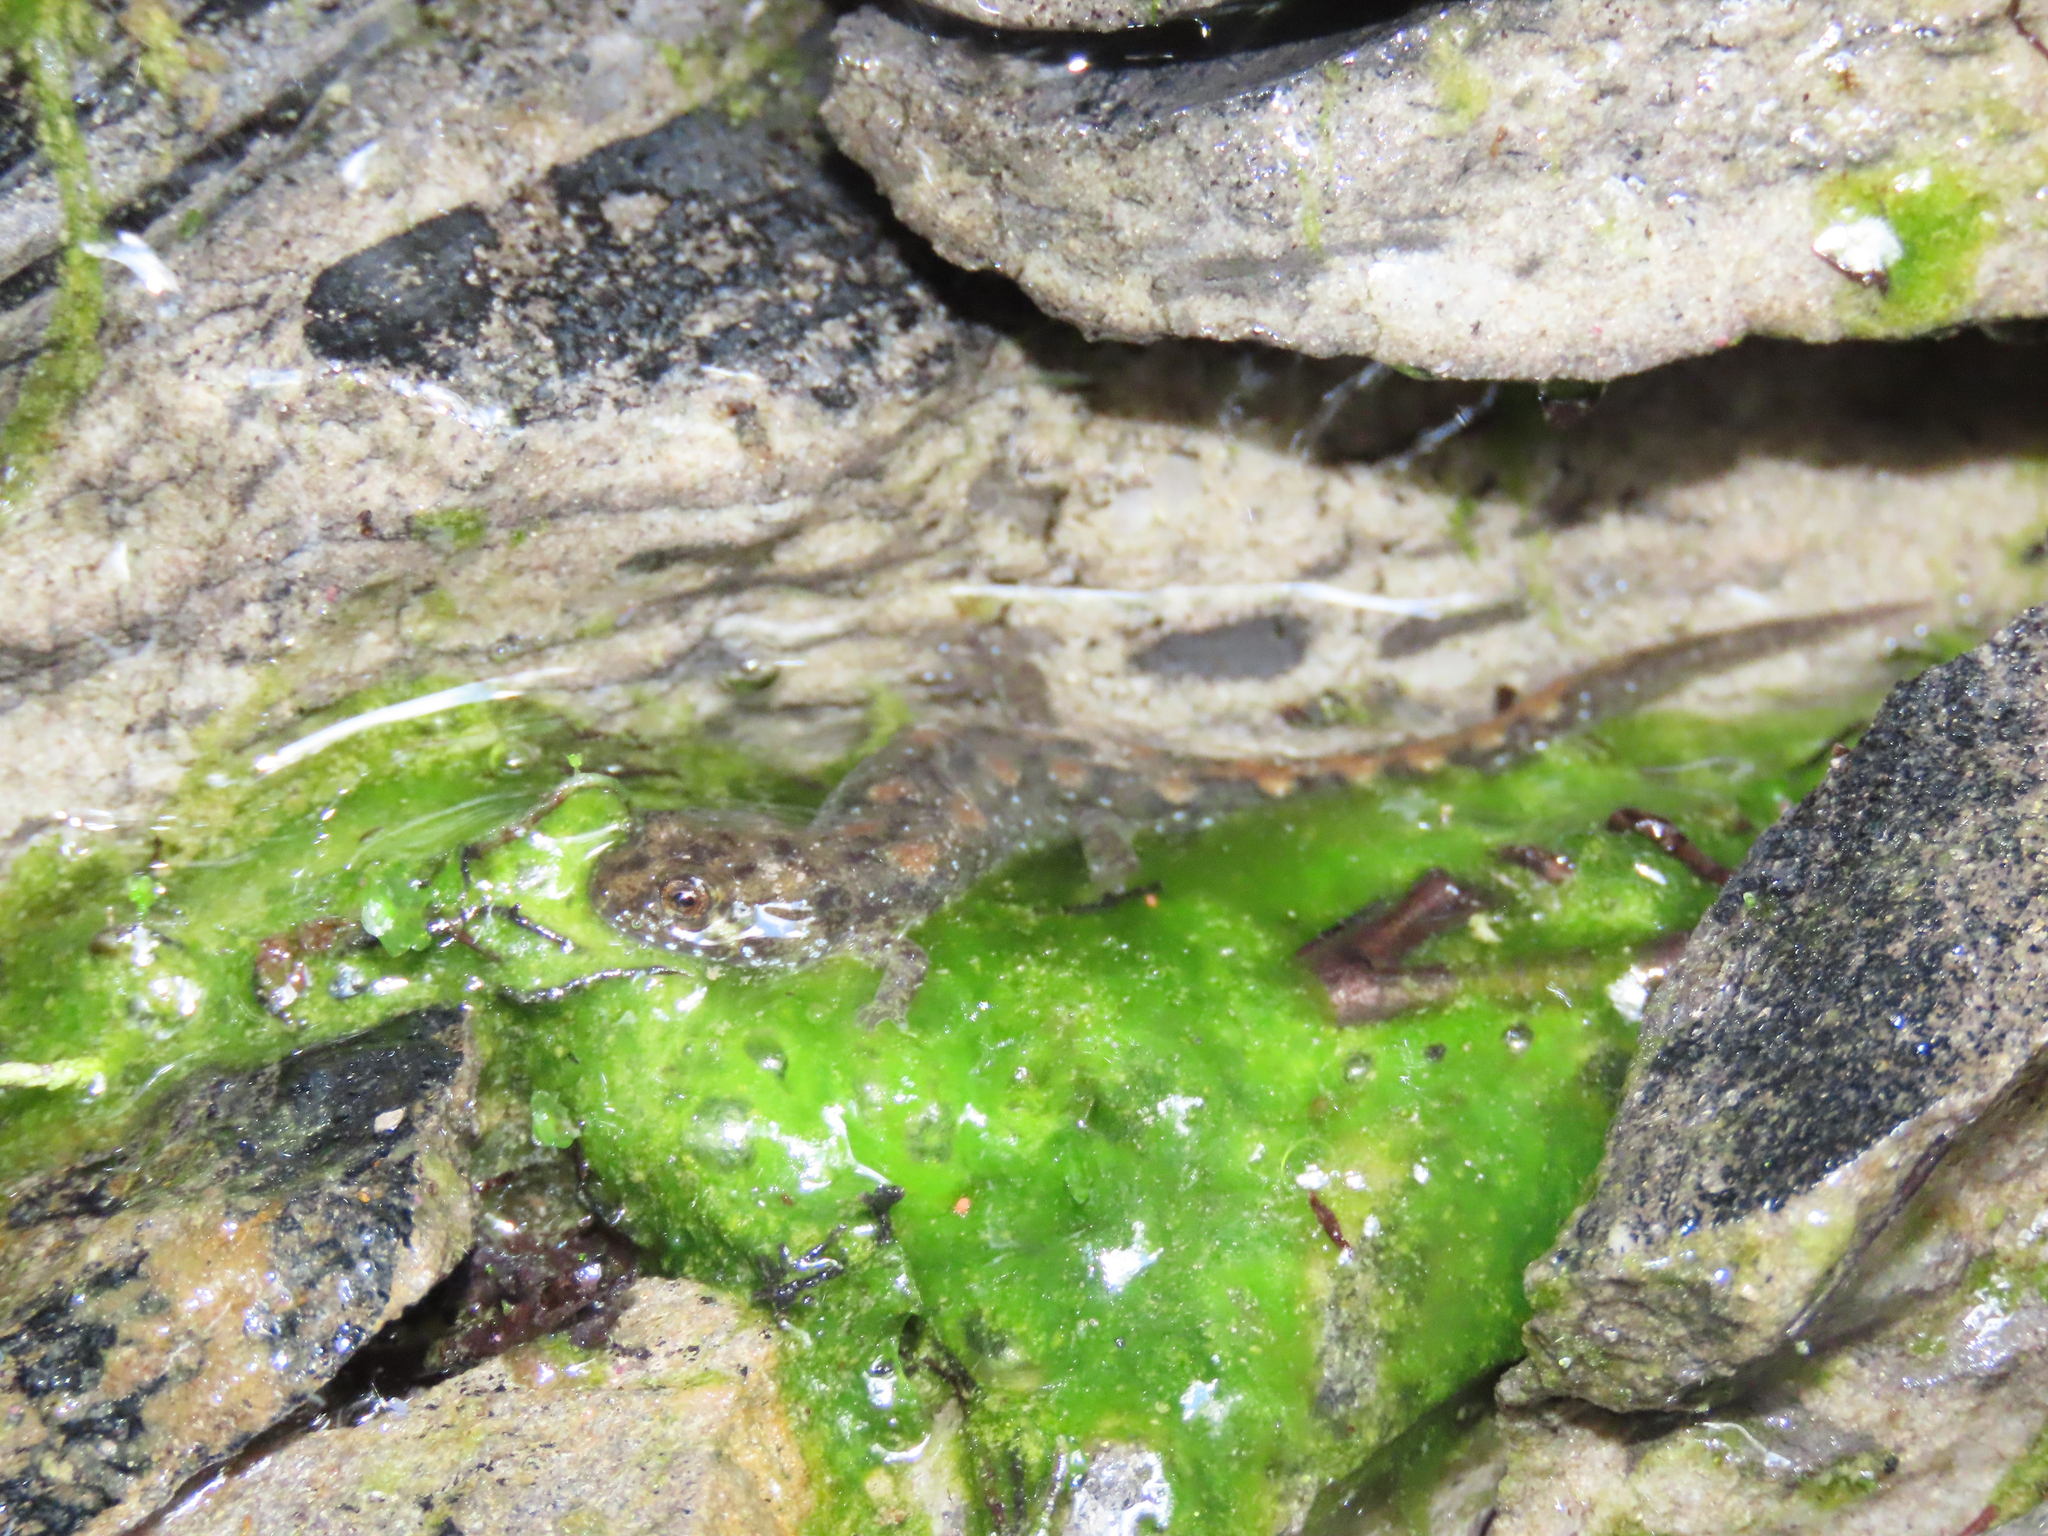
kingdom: Animalia
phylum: Chordata
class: Amphibia
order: Caudata
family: Plethodontidae
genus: Desmognathus
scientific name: Desmognathus monticola
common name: Seal salamander
